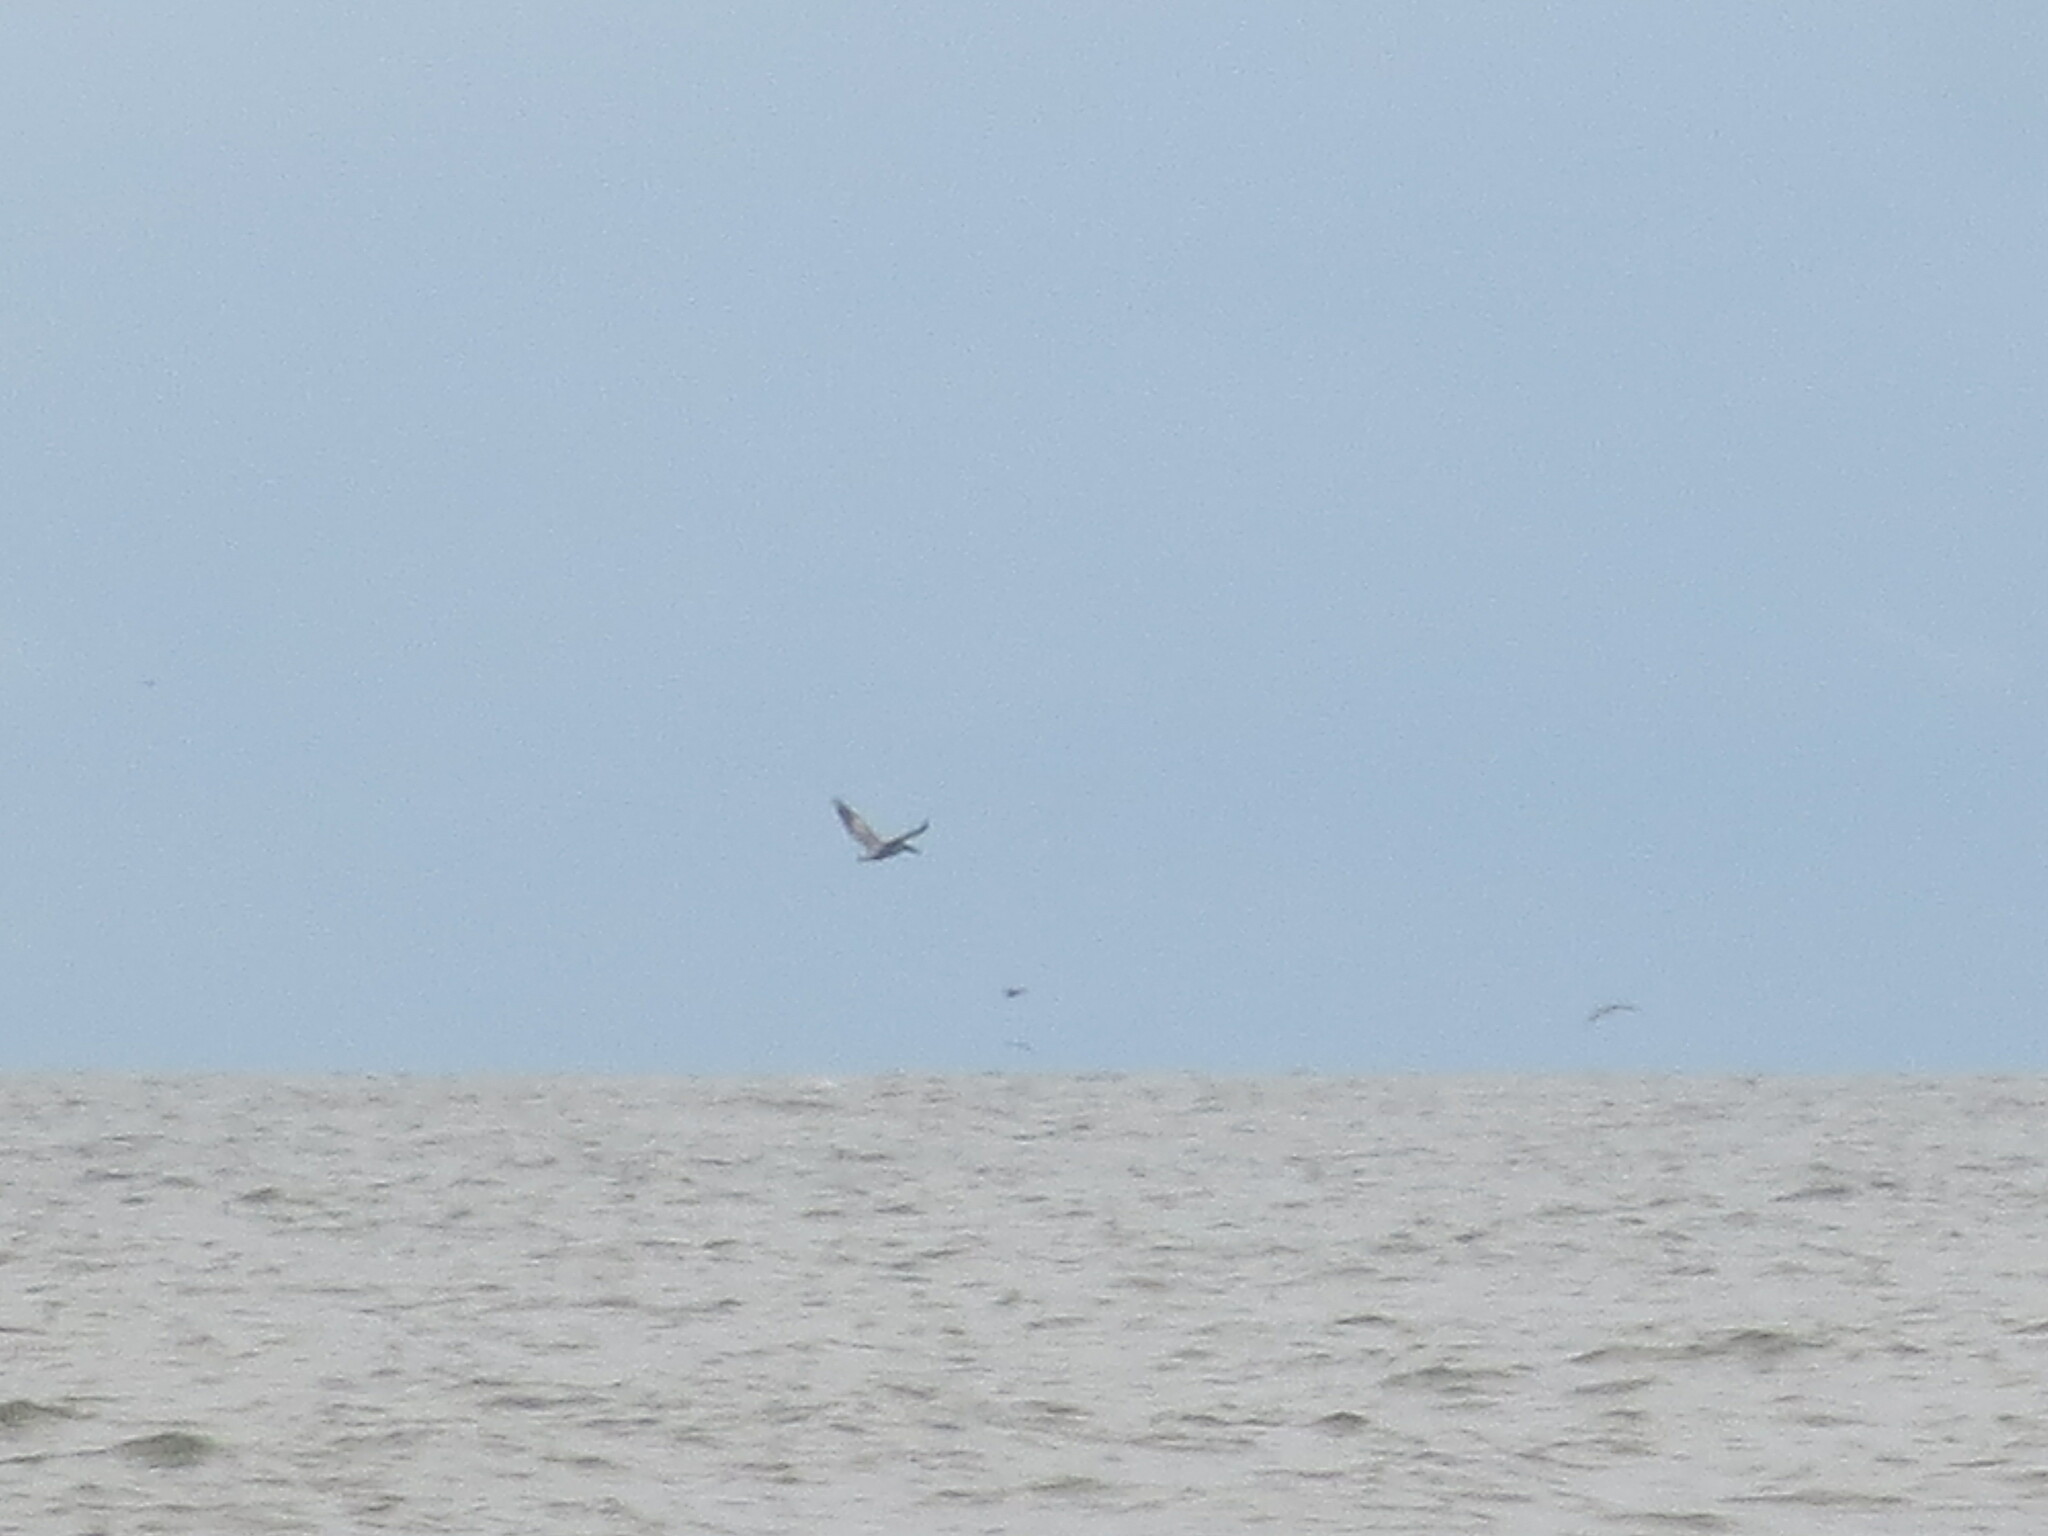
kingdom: Animalia
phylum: Chordata
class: Aves
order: Pelecaniformes
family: Pelecanidae
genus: Pelecanus
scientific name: Pelecanus occidentalis
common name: Brown pelican
